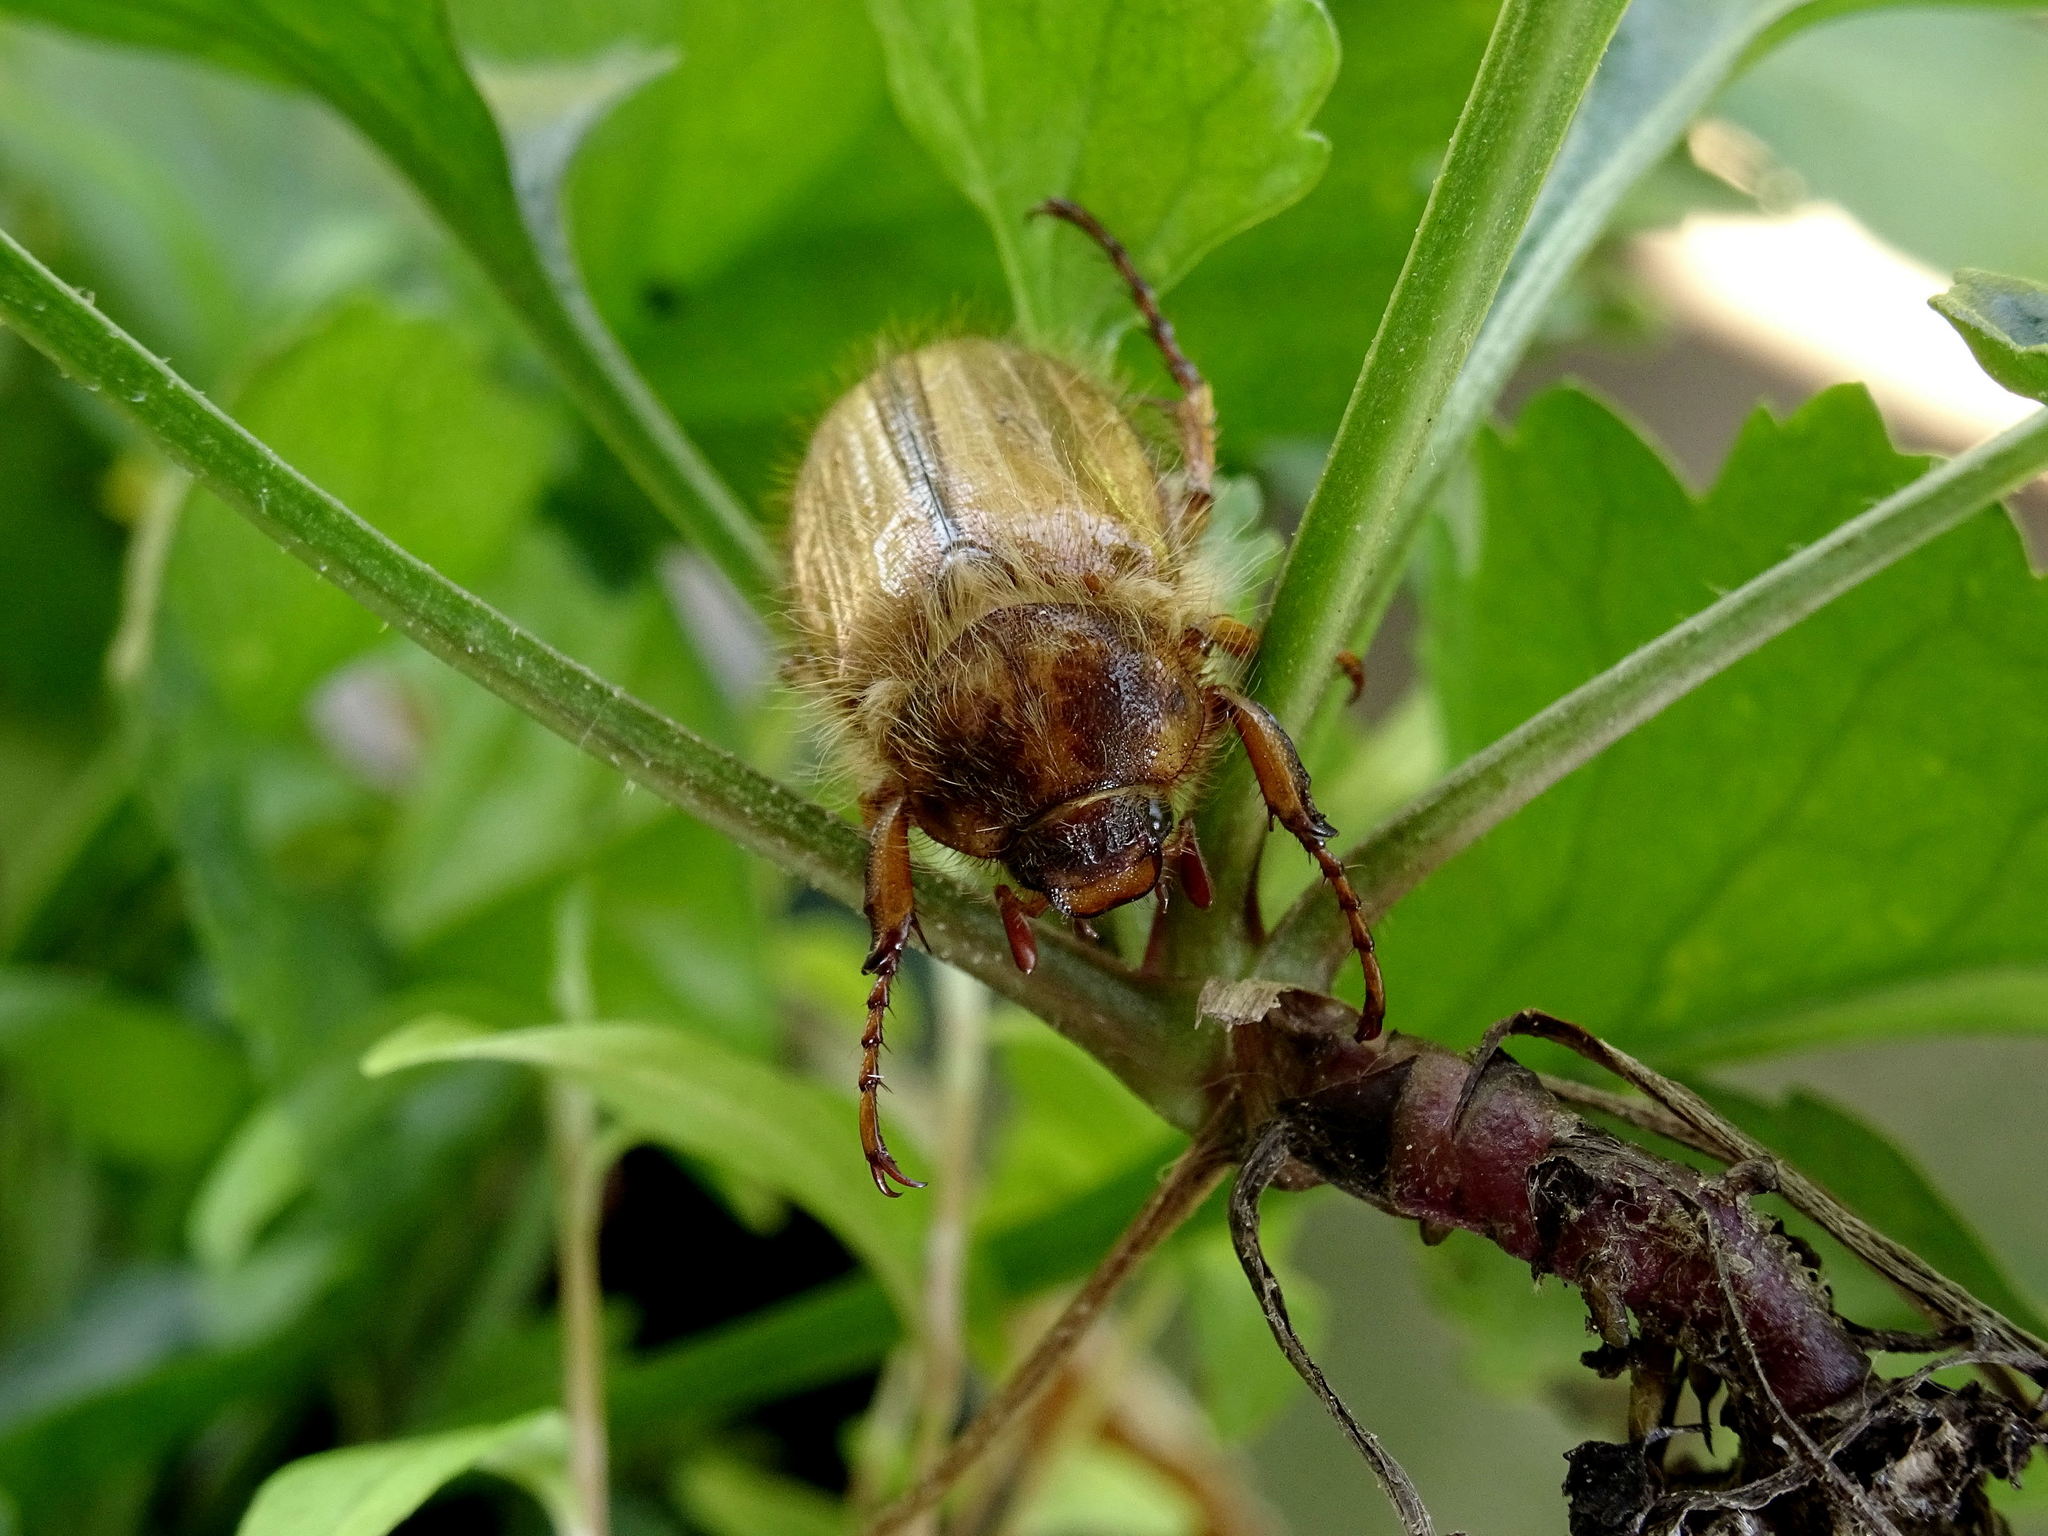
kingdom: Animalia
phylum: Arthropoda
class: Insecta
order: Coleoptera
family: Scarabaeidae
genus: Amphimallon
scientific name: Amphimallon solstitiale
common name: Summer chafer
